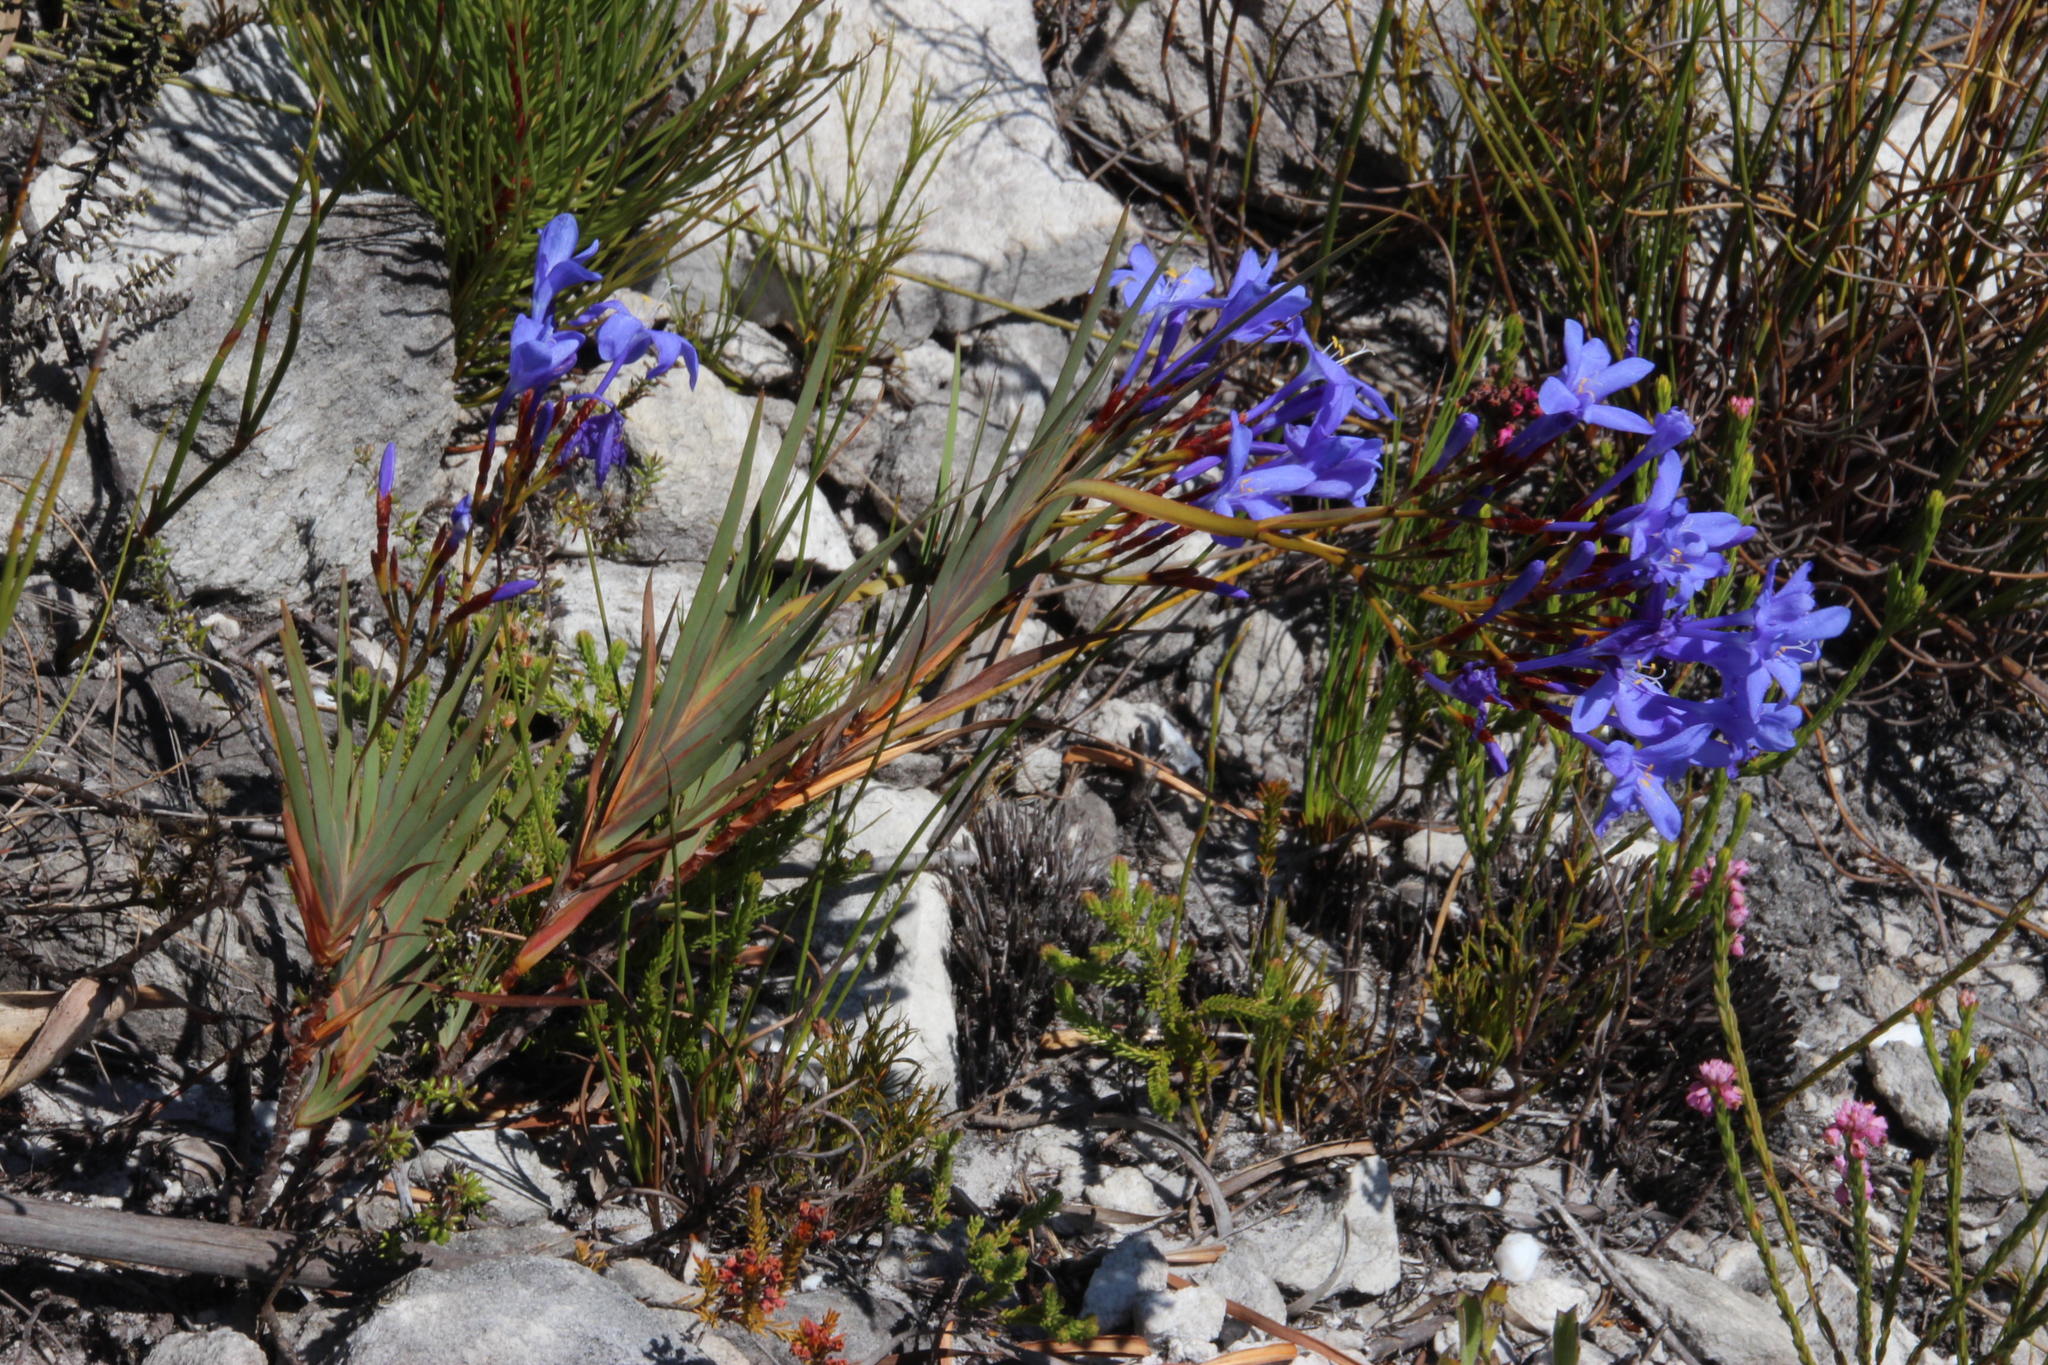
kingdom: Plantae
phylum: Tracheophyta
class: Liliopsida
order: Asparagales
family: Iridaceae
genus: Nivenia
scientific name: Nivenia stokoei
